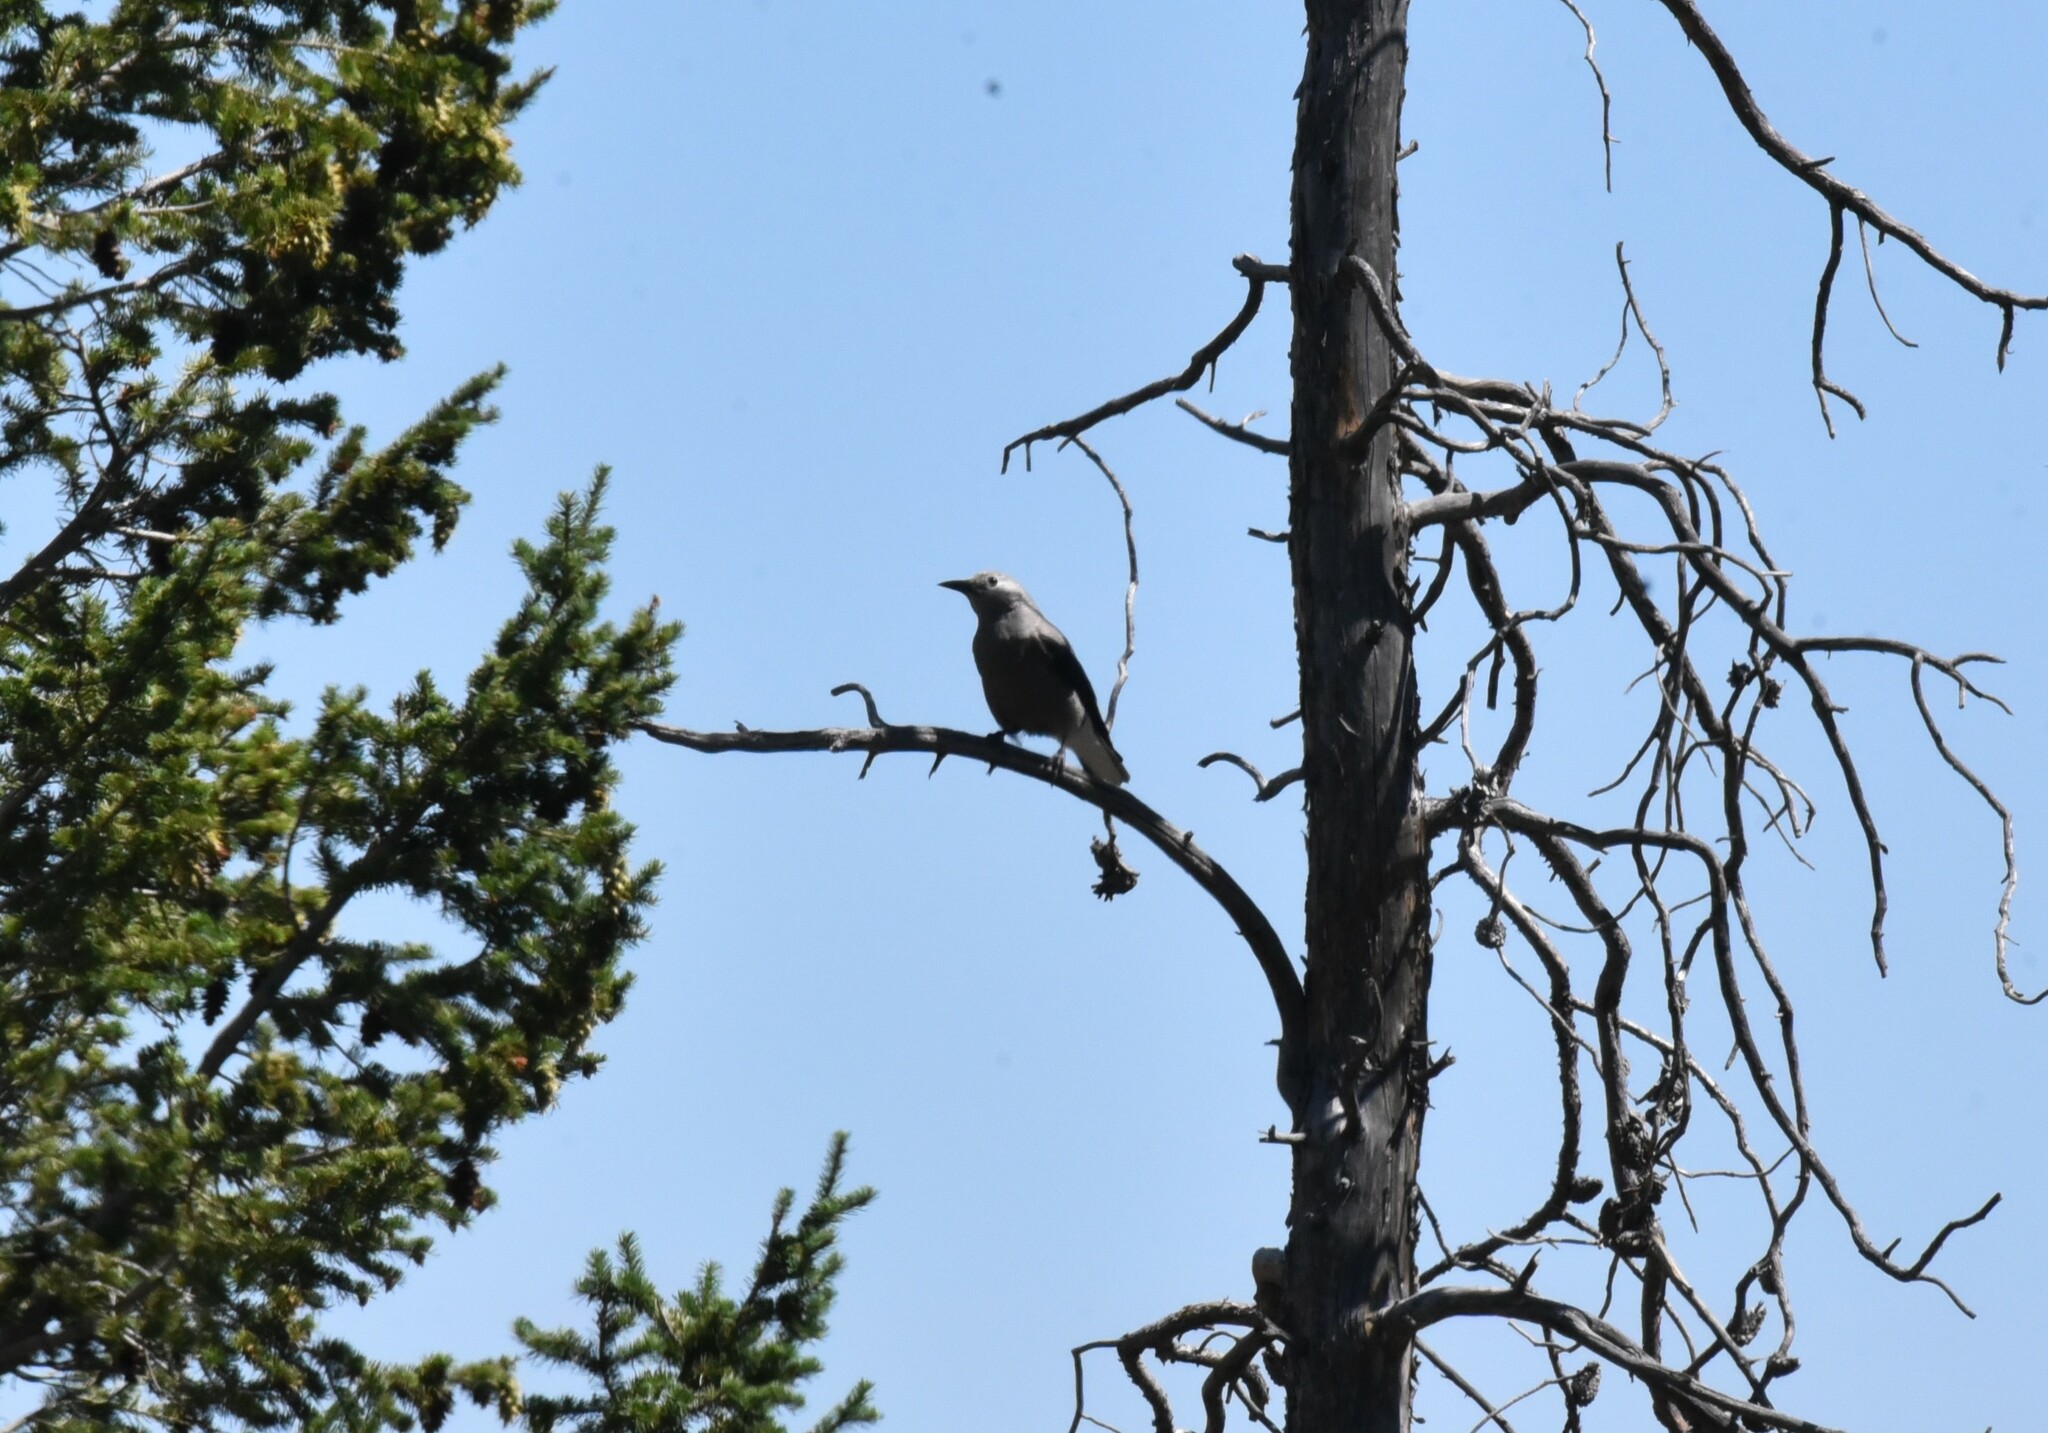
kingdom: Animalia
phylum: Chordata
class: Aves
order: Passeriformes
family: Corvidae
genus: Nucifraga
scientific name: Nucifraga columbiana
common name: Clark's nutcracker
